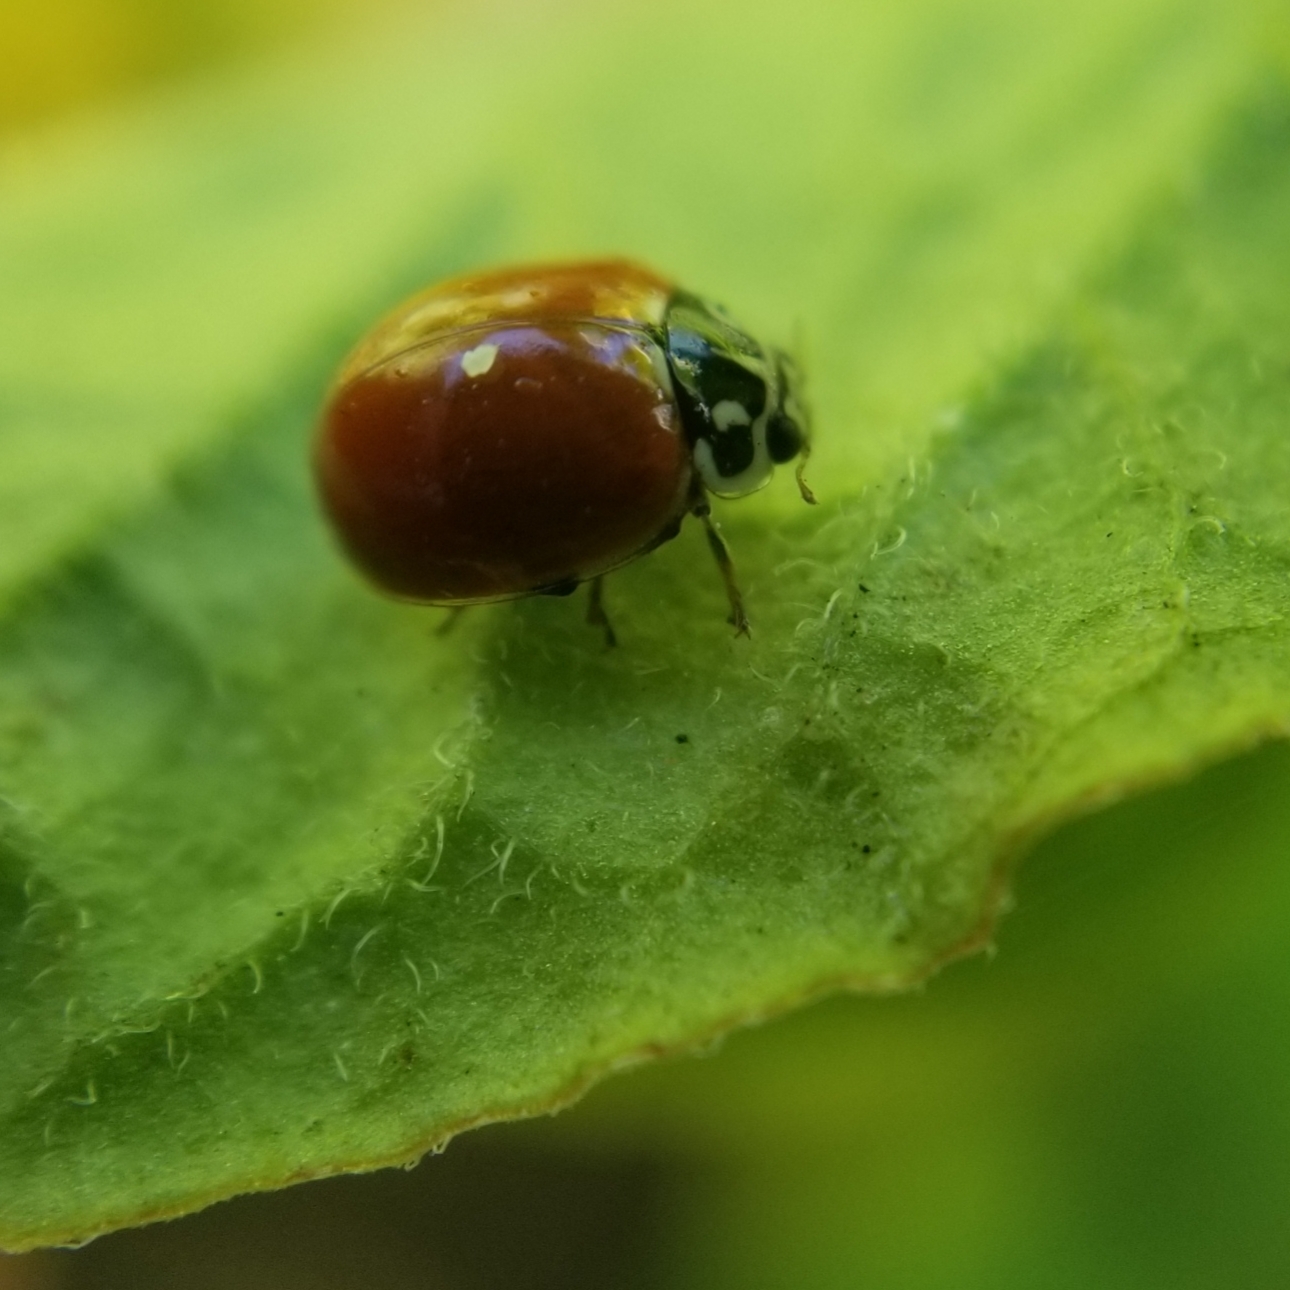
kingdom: Animalia
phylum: Arthropoda
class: Insecta
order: Coleoptera
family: Coccinellidae
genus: Cycloneda
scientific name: Cycloneda polita
